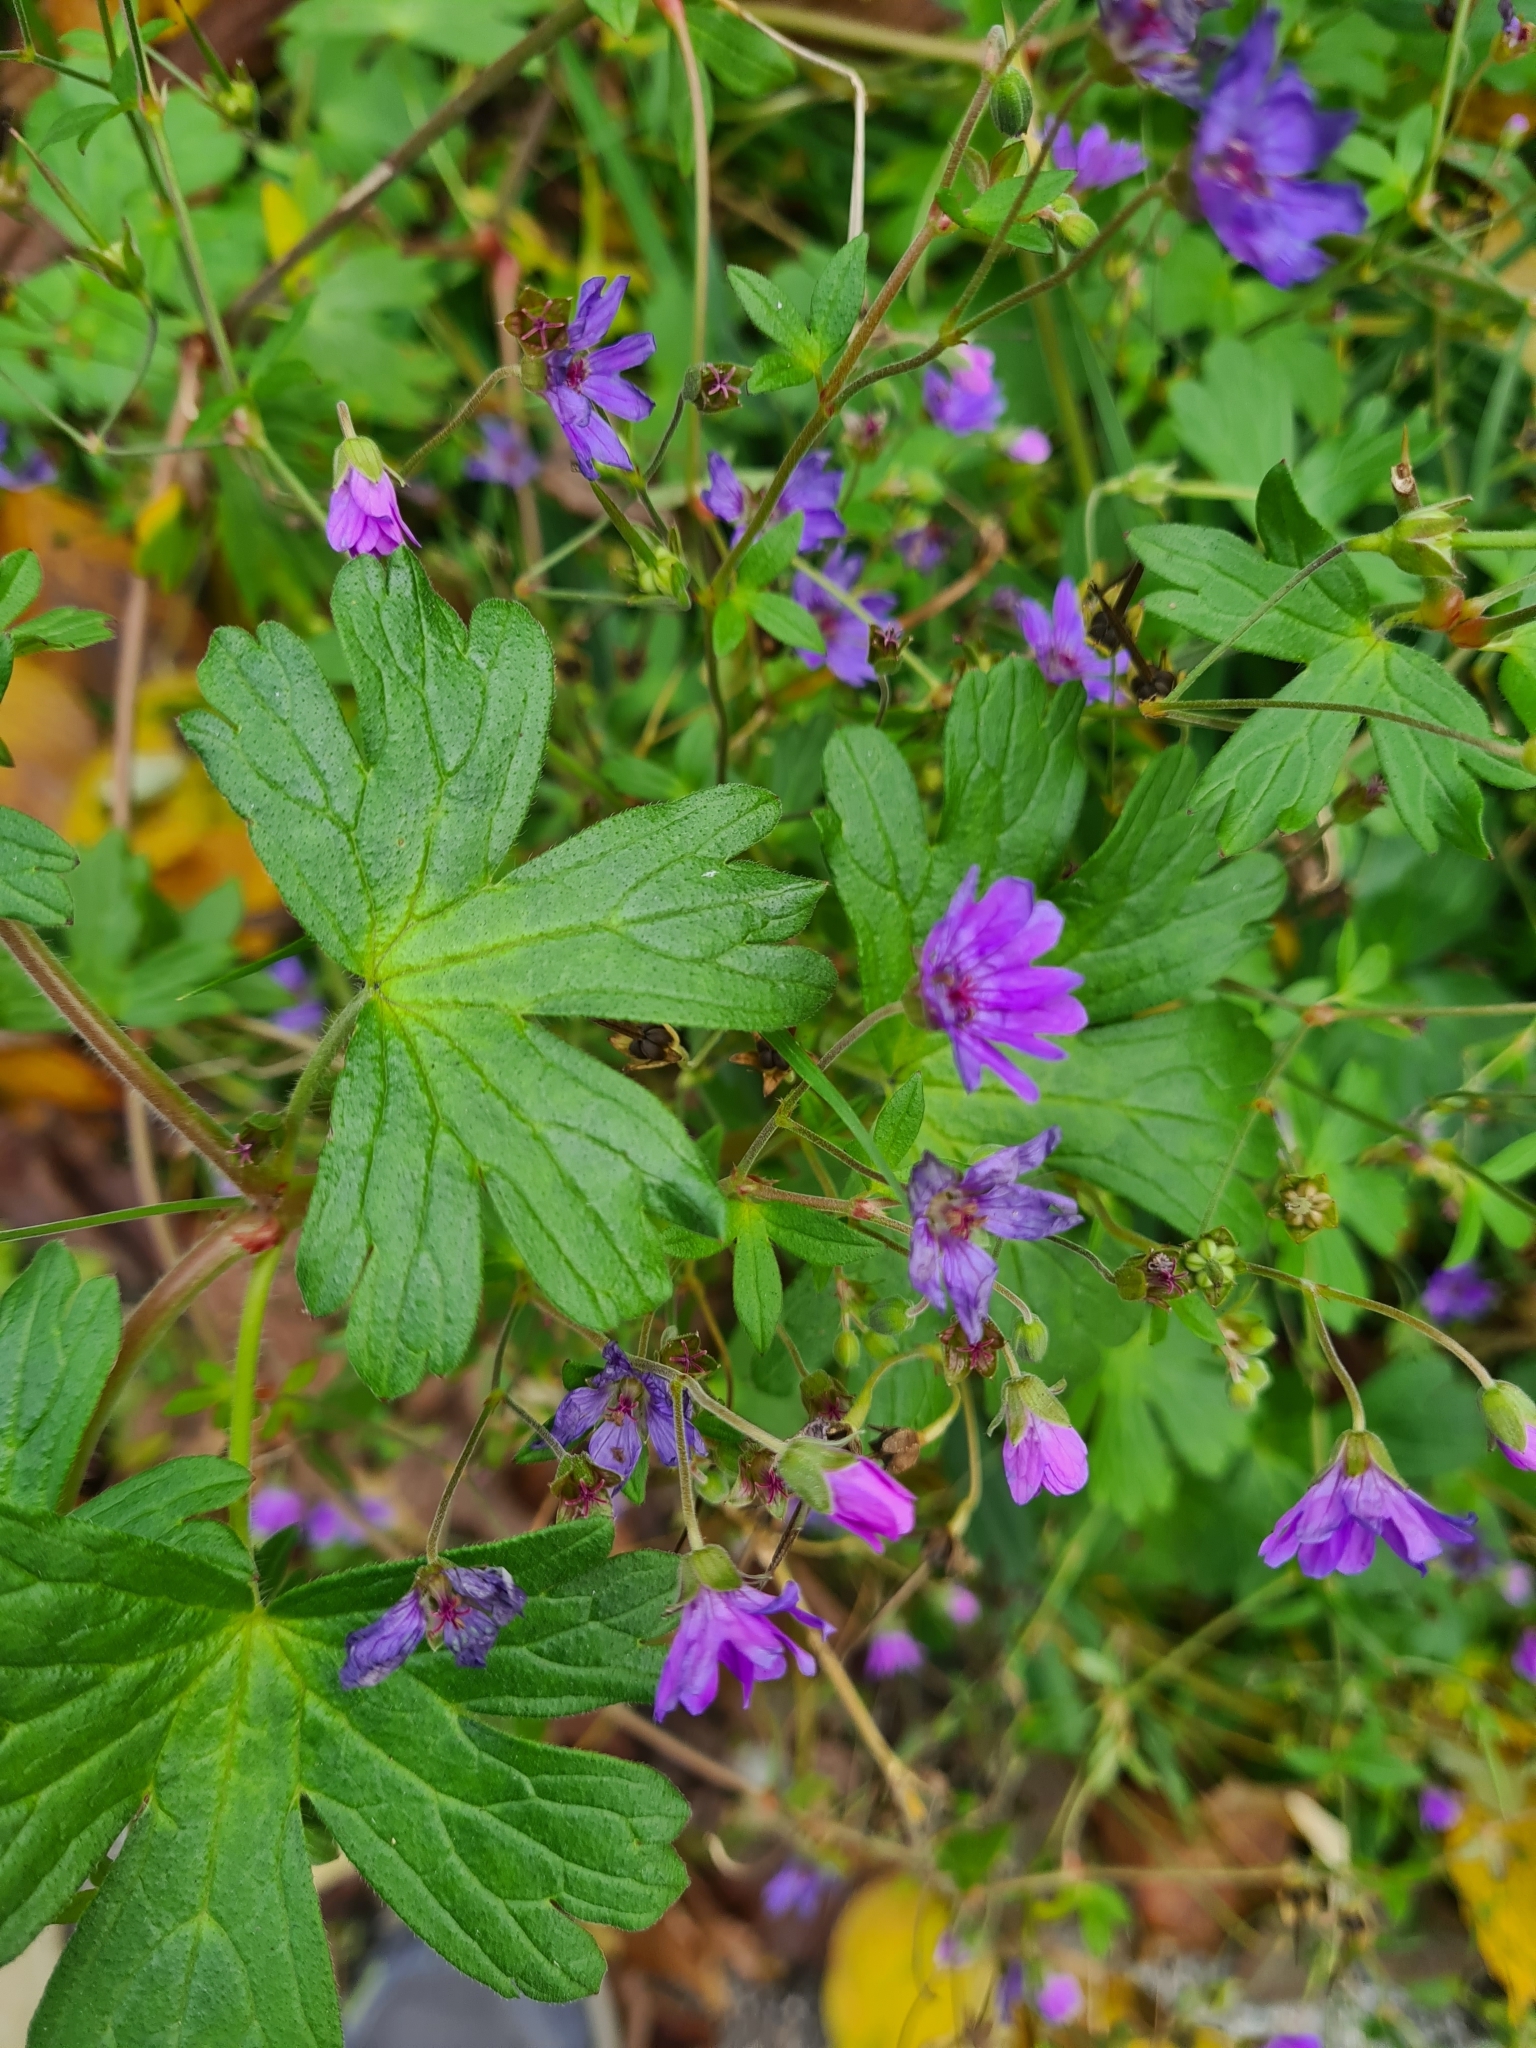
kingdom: Plantae
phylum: Tracheophyta
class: Magnoliopsida
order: Geraniales
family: Geraniaceae
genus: Geranium
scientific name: Geranium pyrenaicum
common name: Hedgerow crane's-bill
